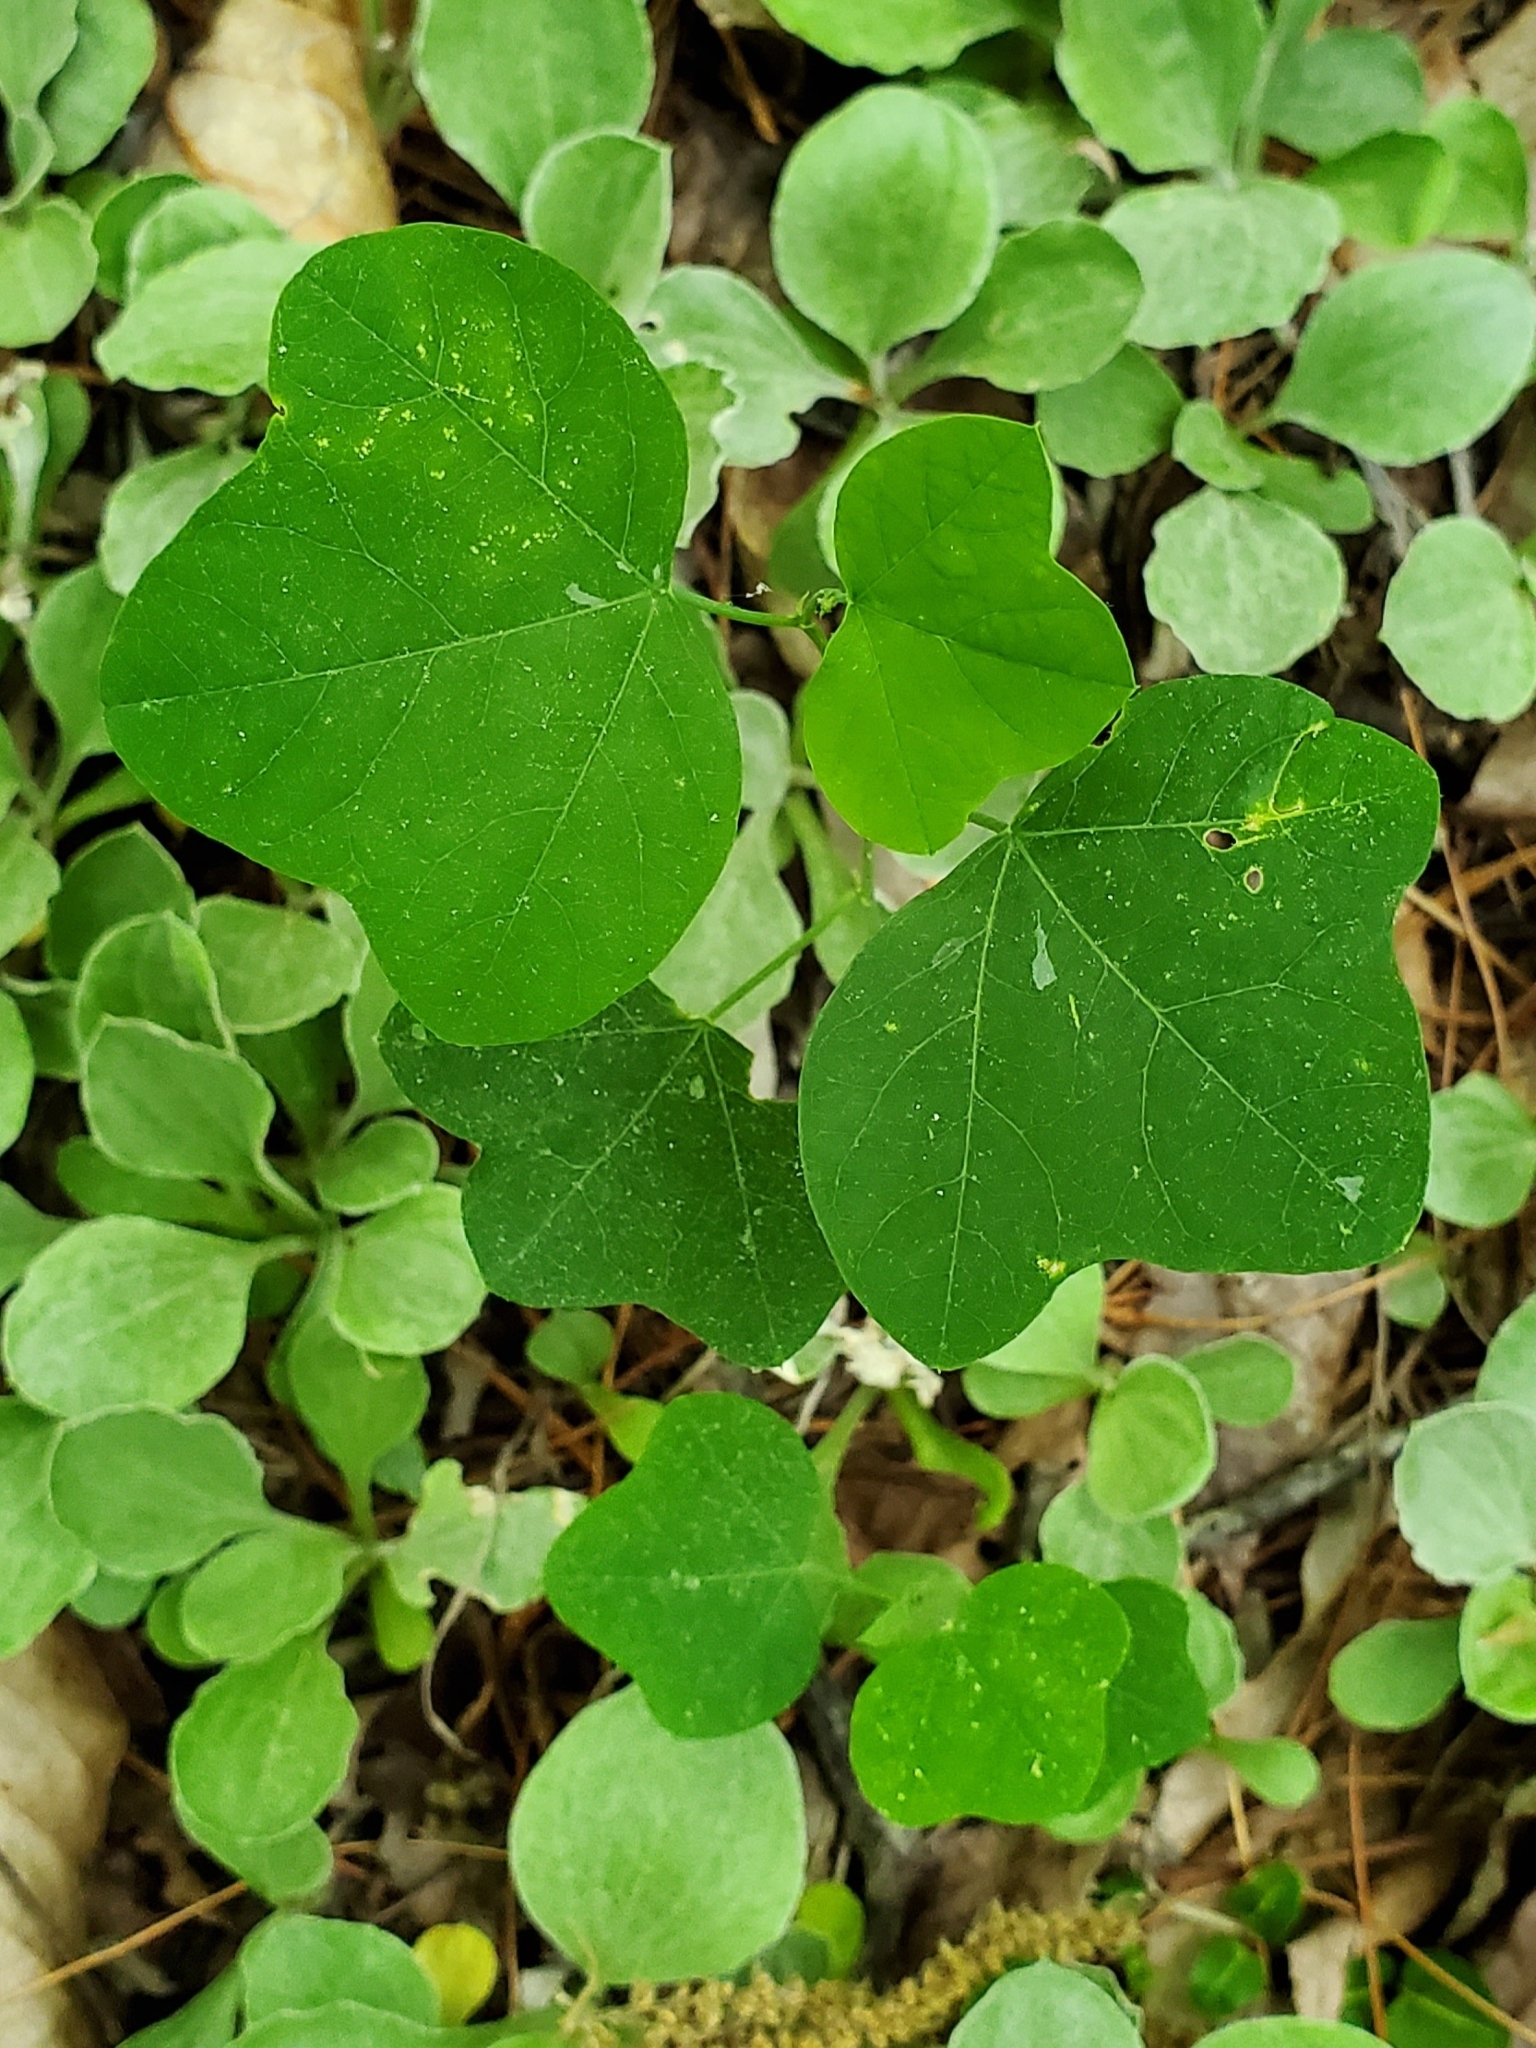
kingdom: Plantae
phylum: Tracheophyta
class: Magnoliopsida
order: Malpighiales
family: Passifloraceae
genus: Passiflora
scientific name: Passiflora lutea
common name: Yellow passionflower
